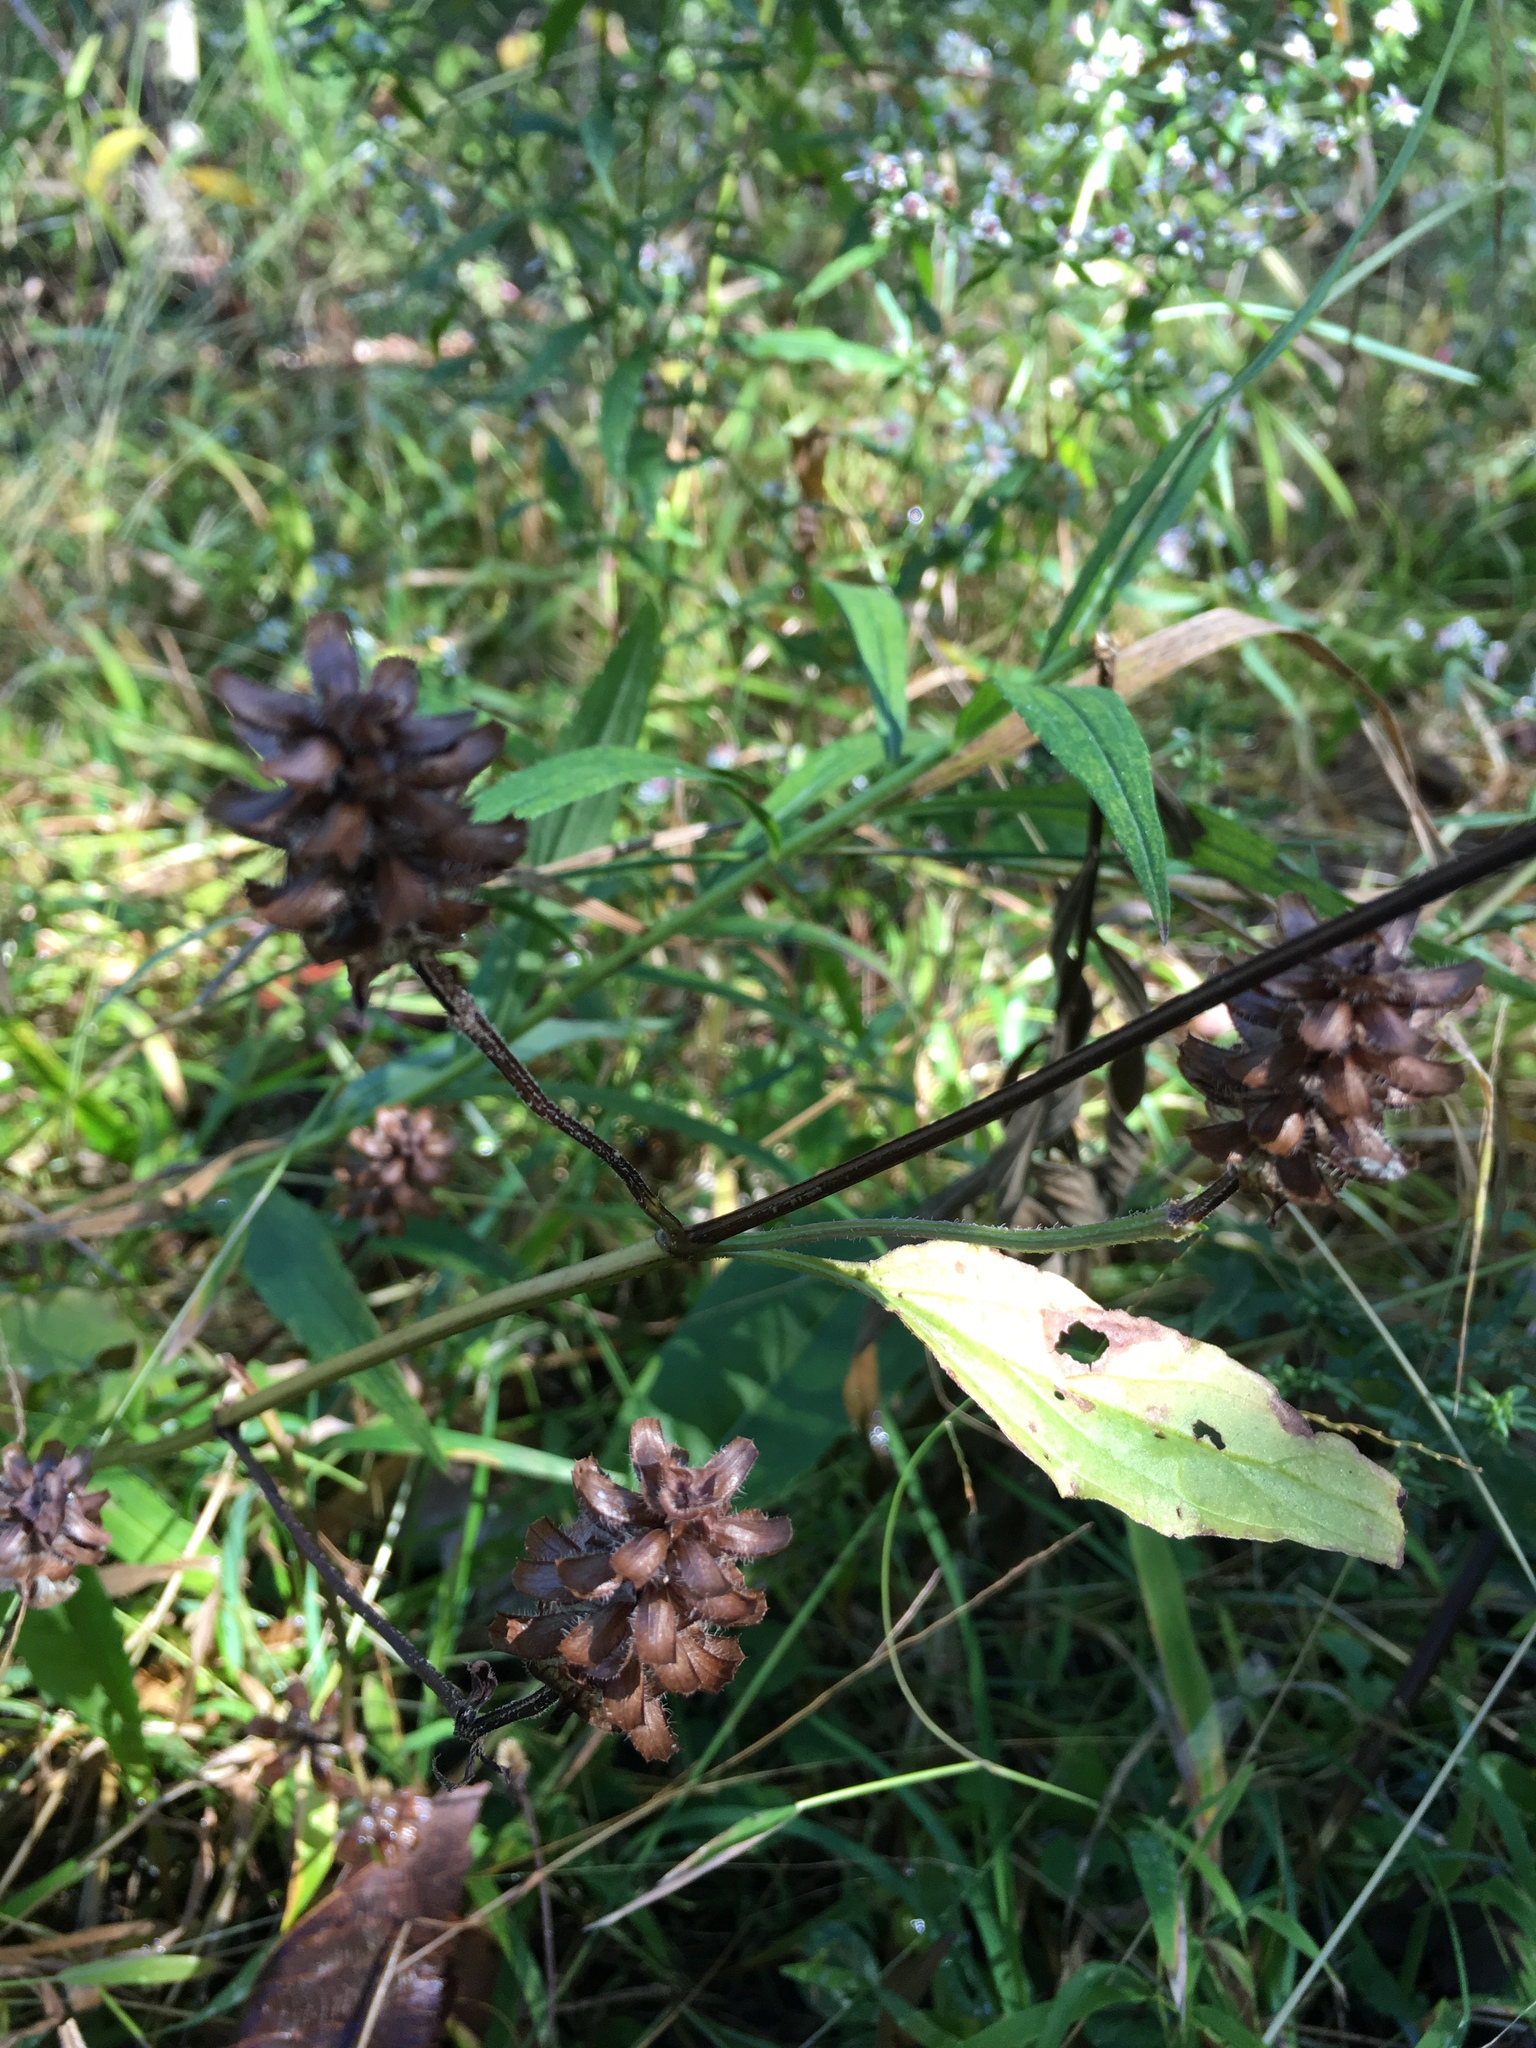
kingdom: Plantae
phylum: Tracheophyta
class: Magnoliopsida
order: Lamiales
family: Lamiaceae
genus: Prunella
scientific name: Prunella vulgaris
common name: Heal-all
